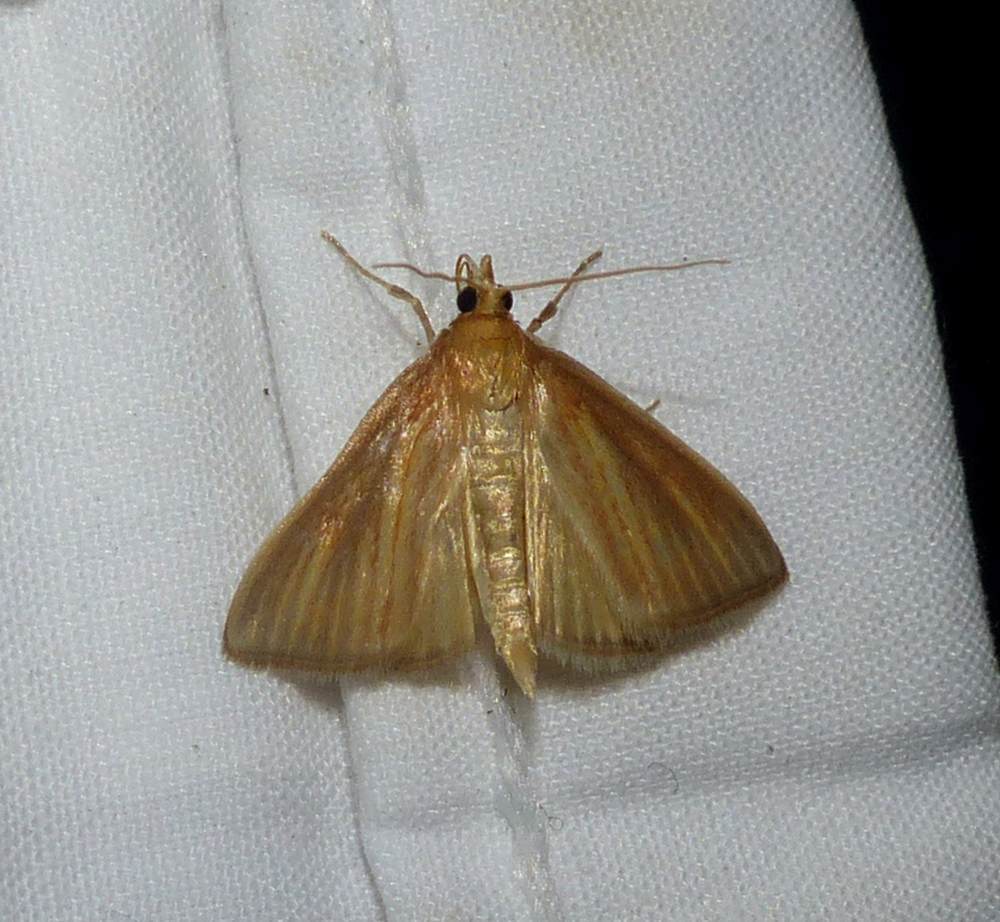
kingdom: Animalia
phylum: Arthropoda
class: Insecta
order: Lepidoptera
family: Crambidae
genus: Nascia
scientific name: Nascia acutellus
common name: Streaked orange moth
